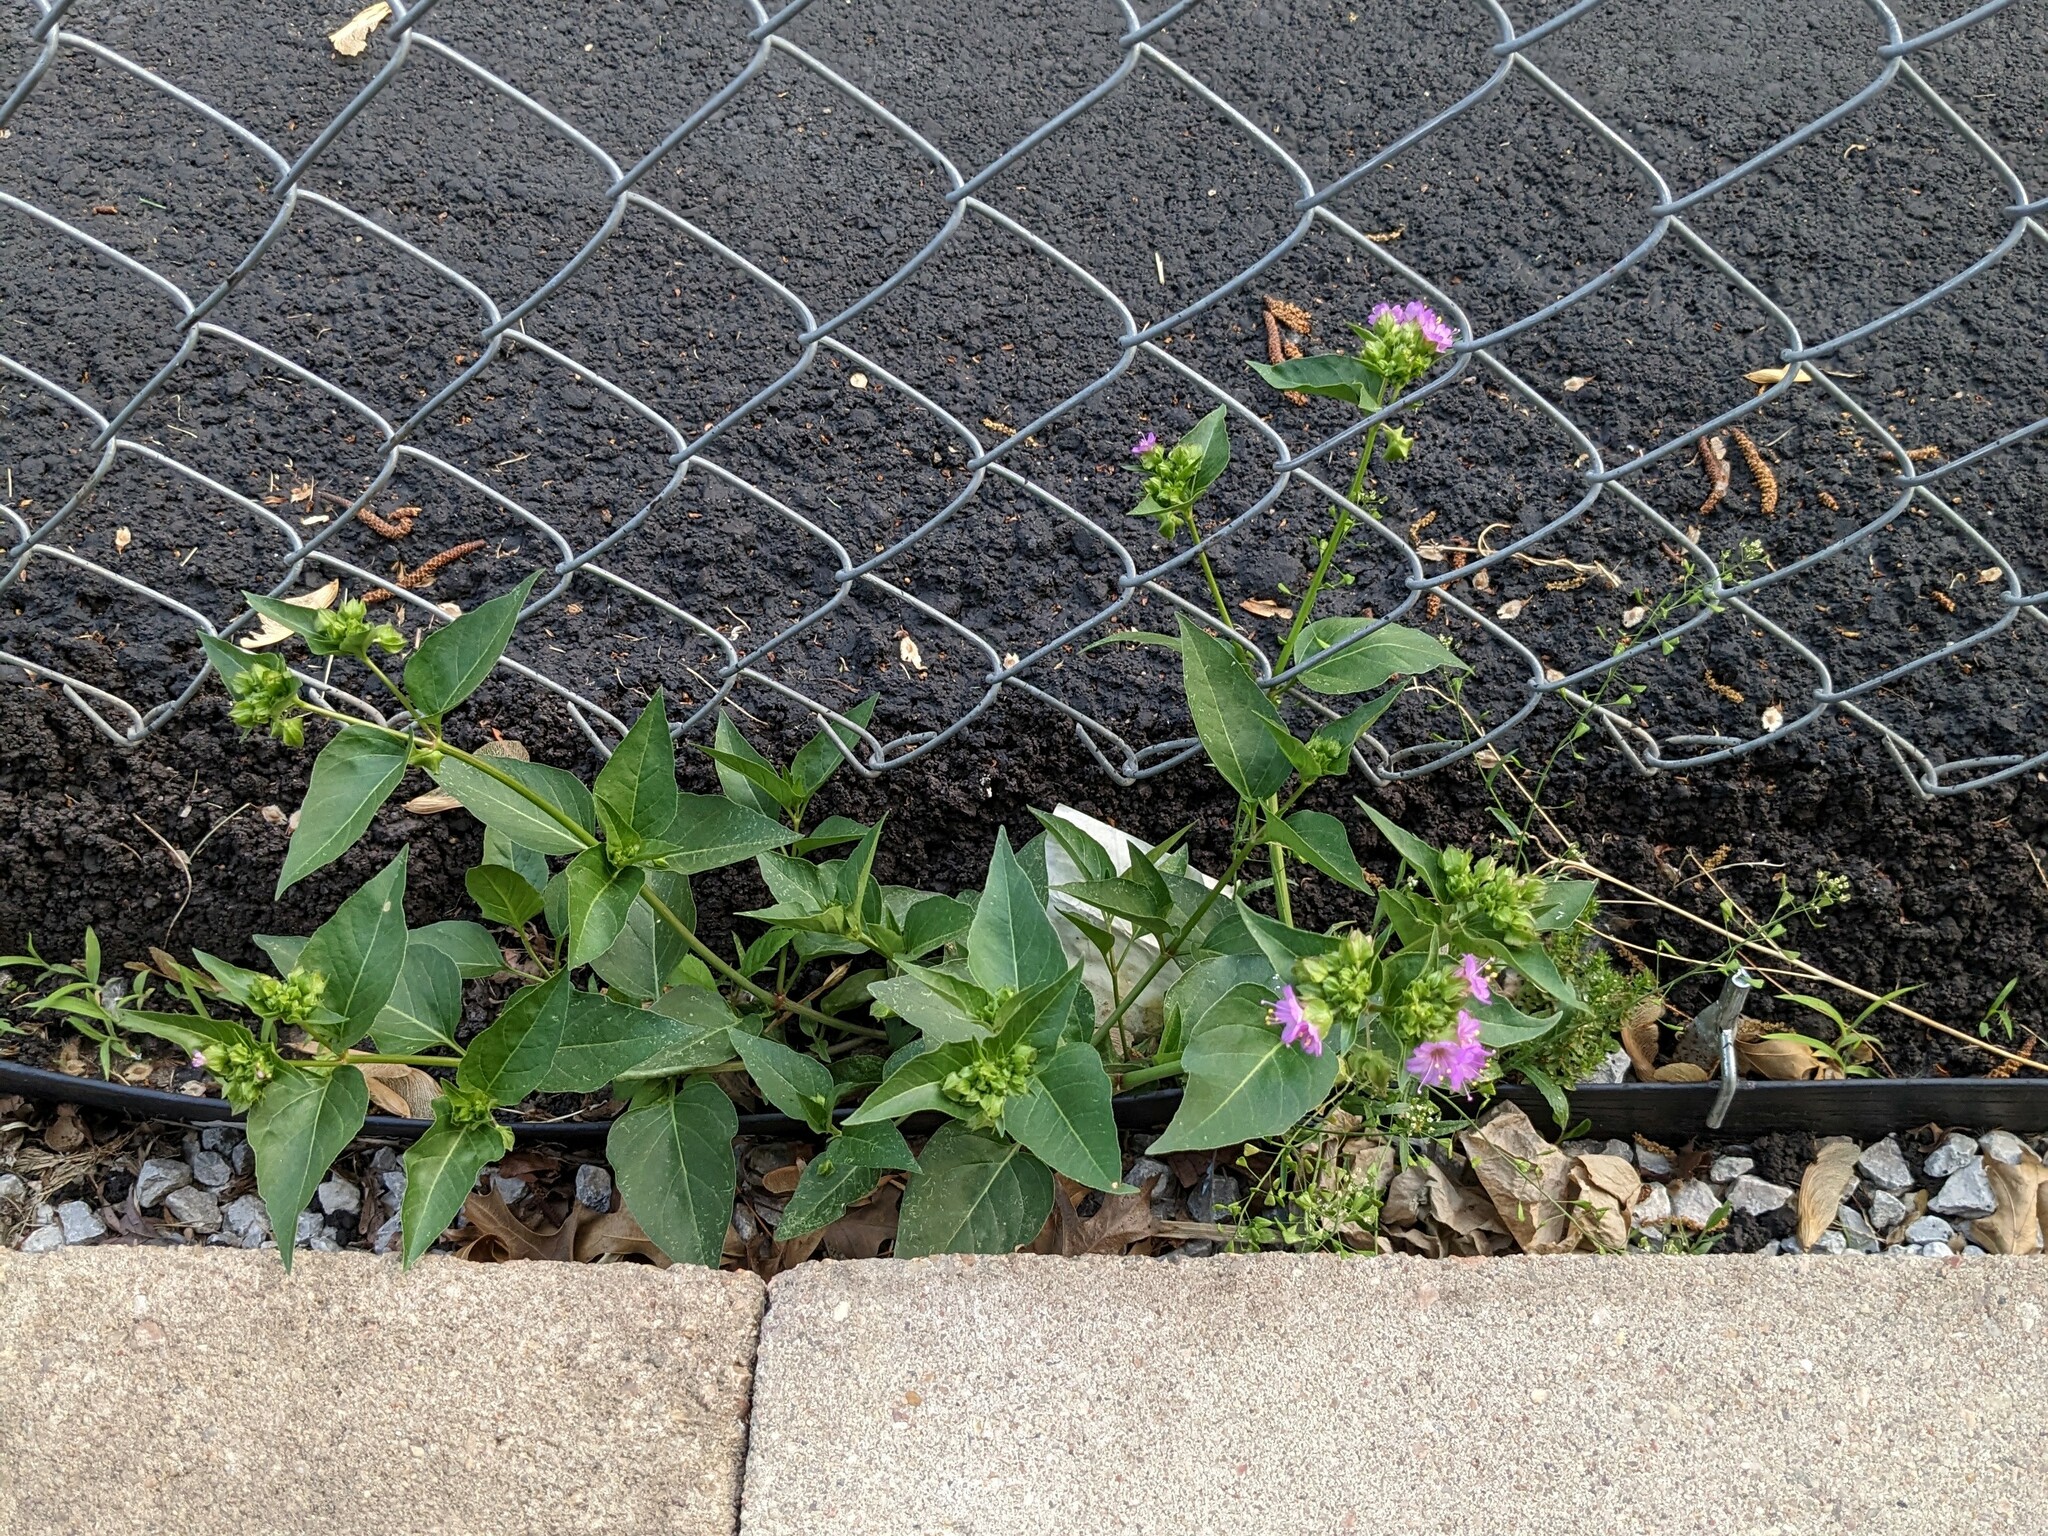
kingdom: Plantae
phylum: Tracheophyta
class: Magnoliopsida
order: Caryophyllales
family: Nyctaginaceae
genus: Mirabilis
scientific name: Mirabilis nyctaginea
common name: Umbrella wort
